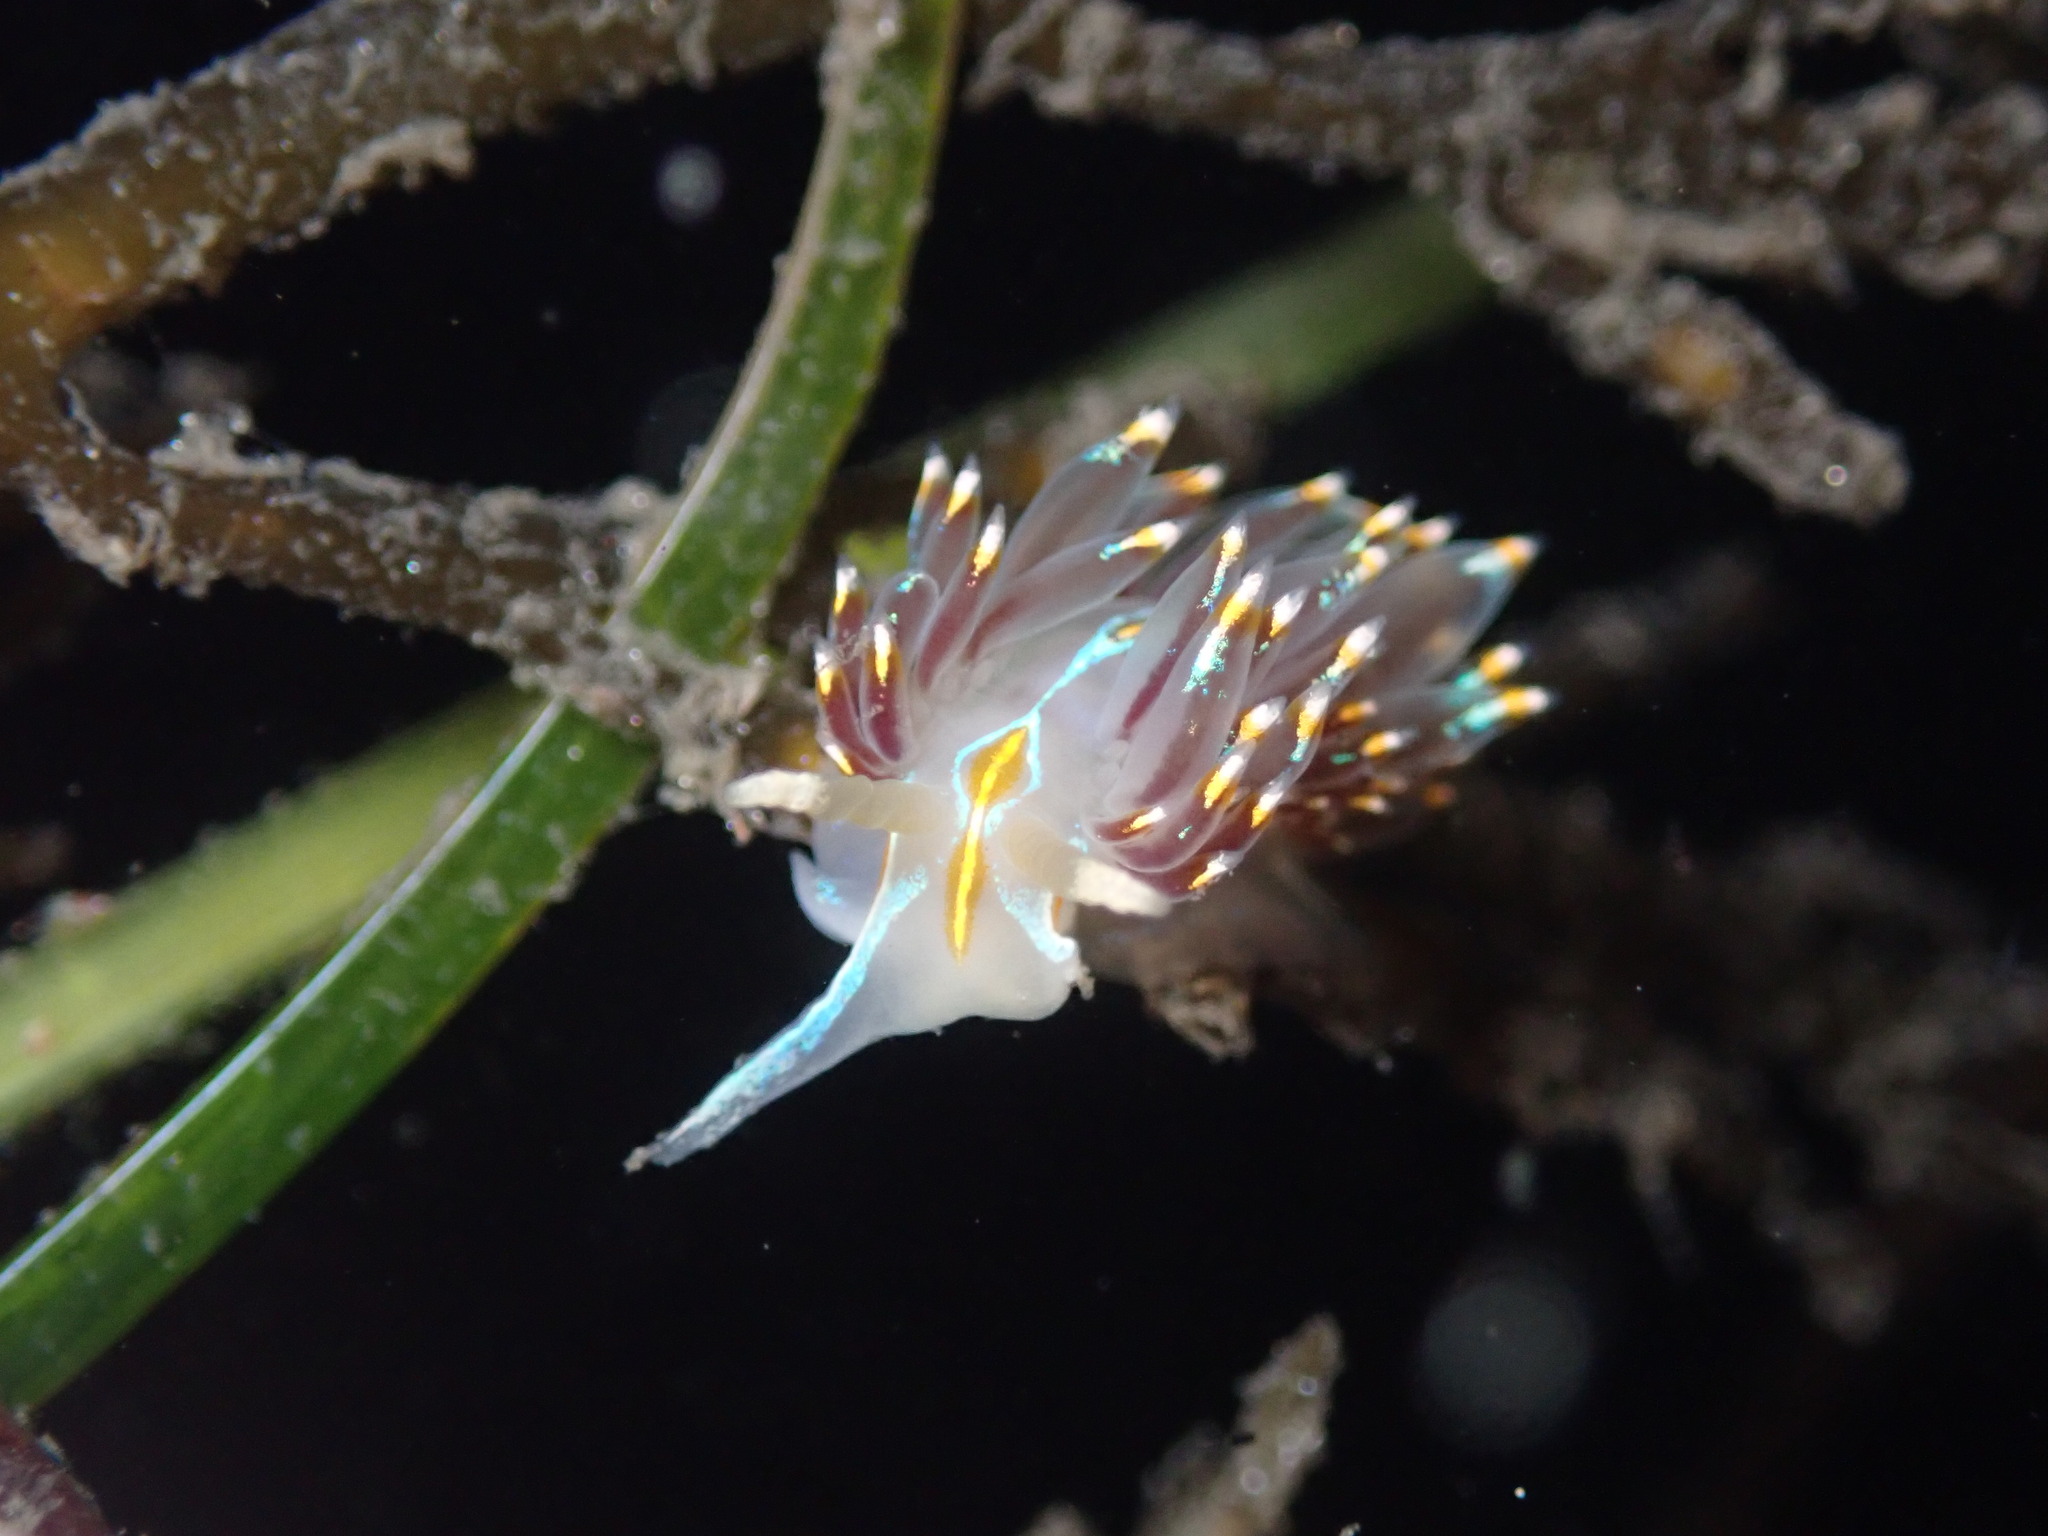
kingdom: Animalia
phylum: Mollusca
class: Gastropoda
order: Nudibranchia
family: Myrrhinidae
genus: Hermissenda
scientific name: Hermissenda opalescens
